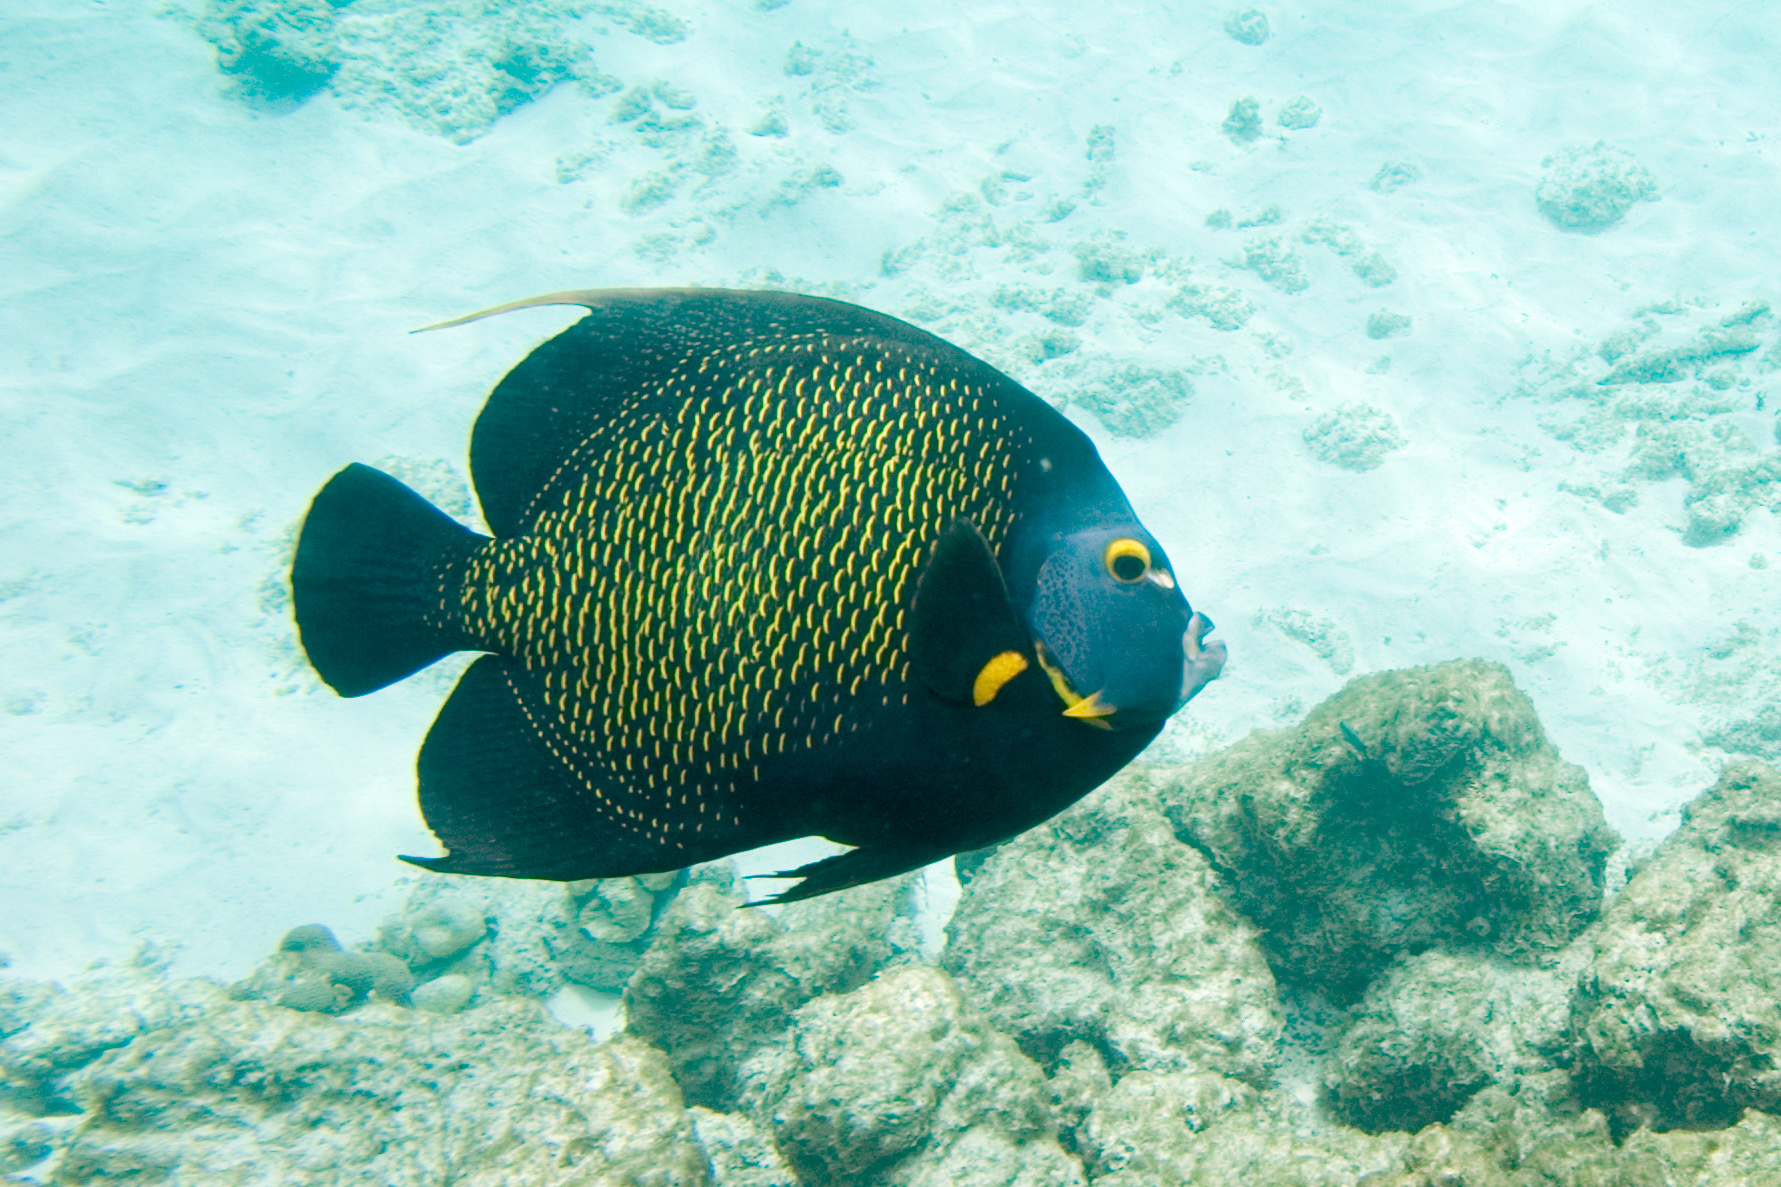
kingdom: Animalia
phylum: Chordata
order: Perciformes
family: Pomacanthidae
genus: Pomacanthus
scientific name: Pomacanthus paru
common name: French angelfish
